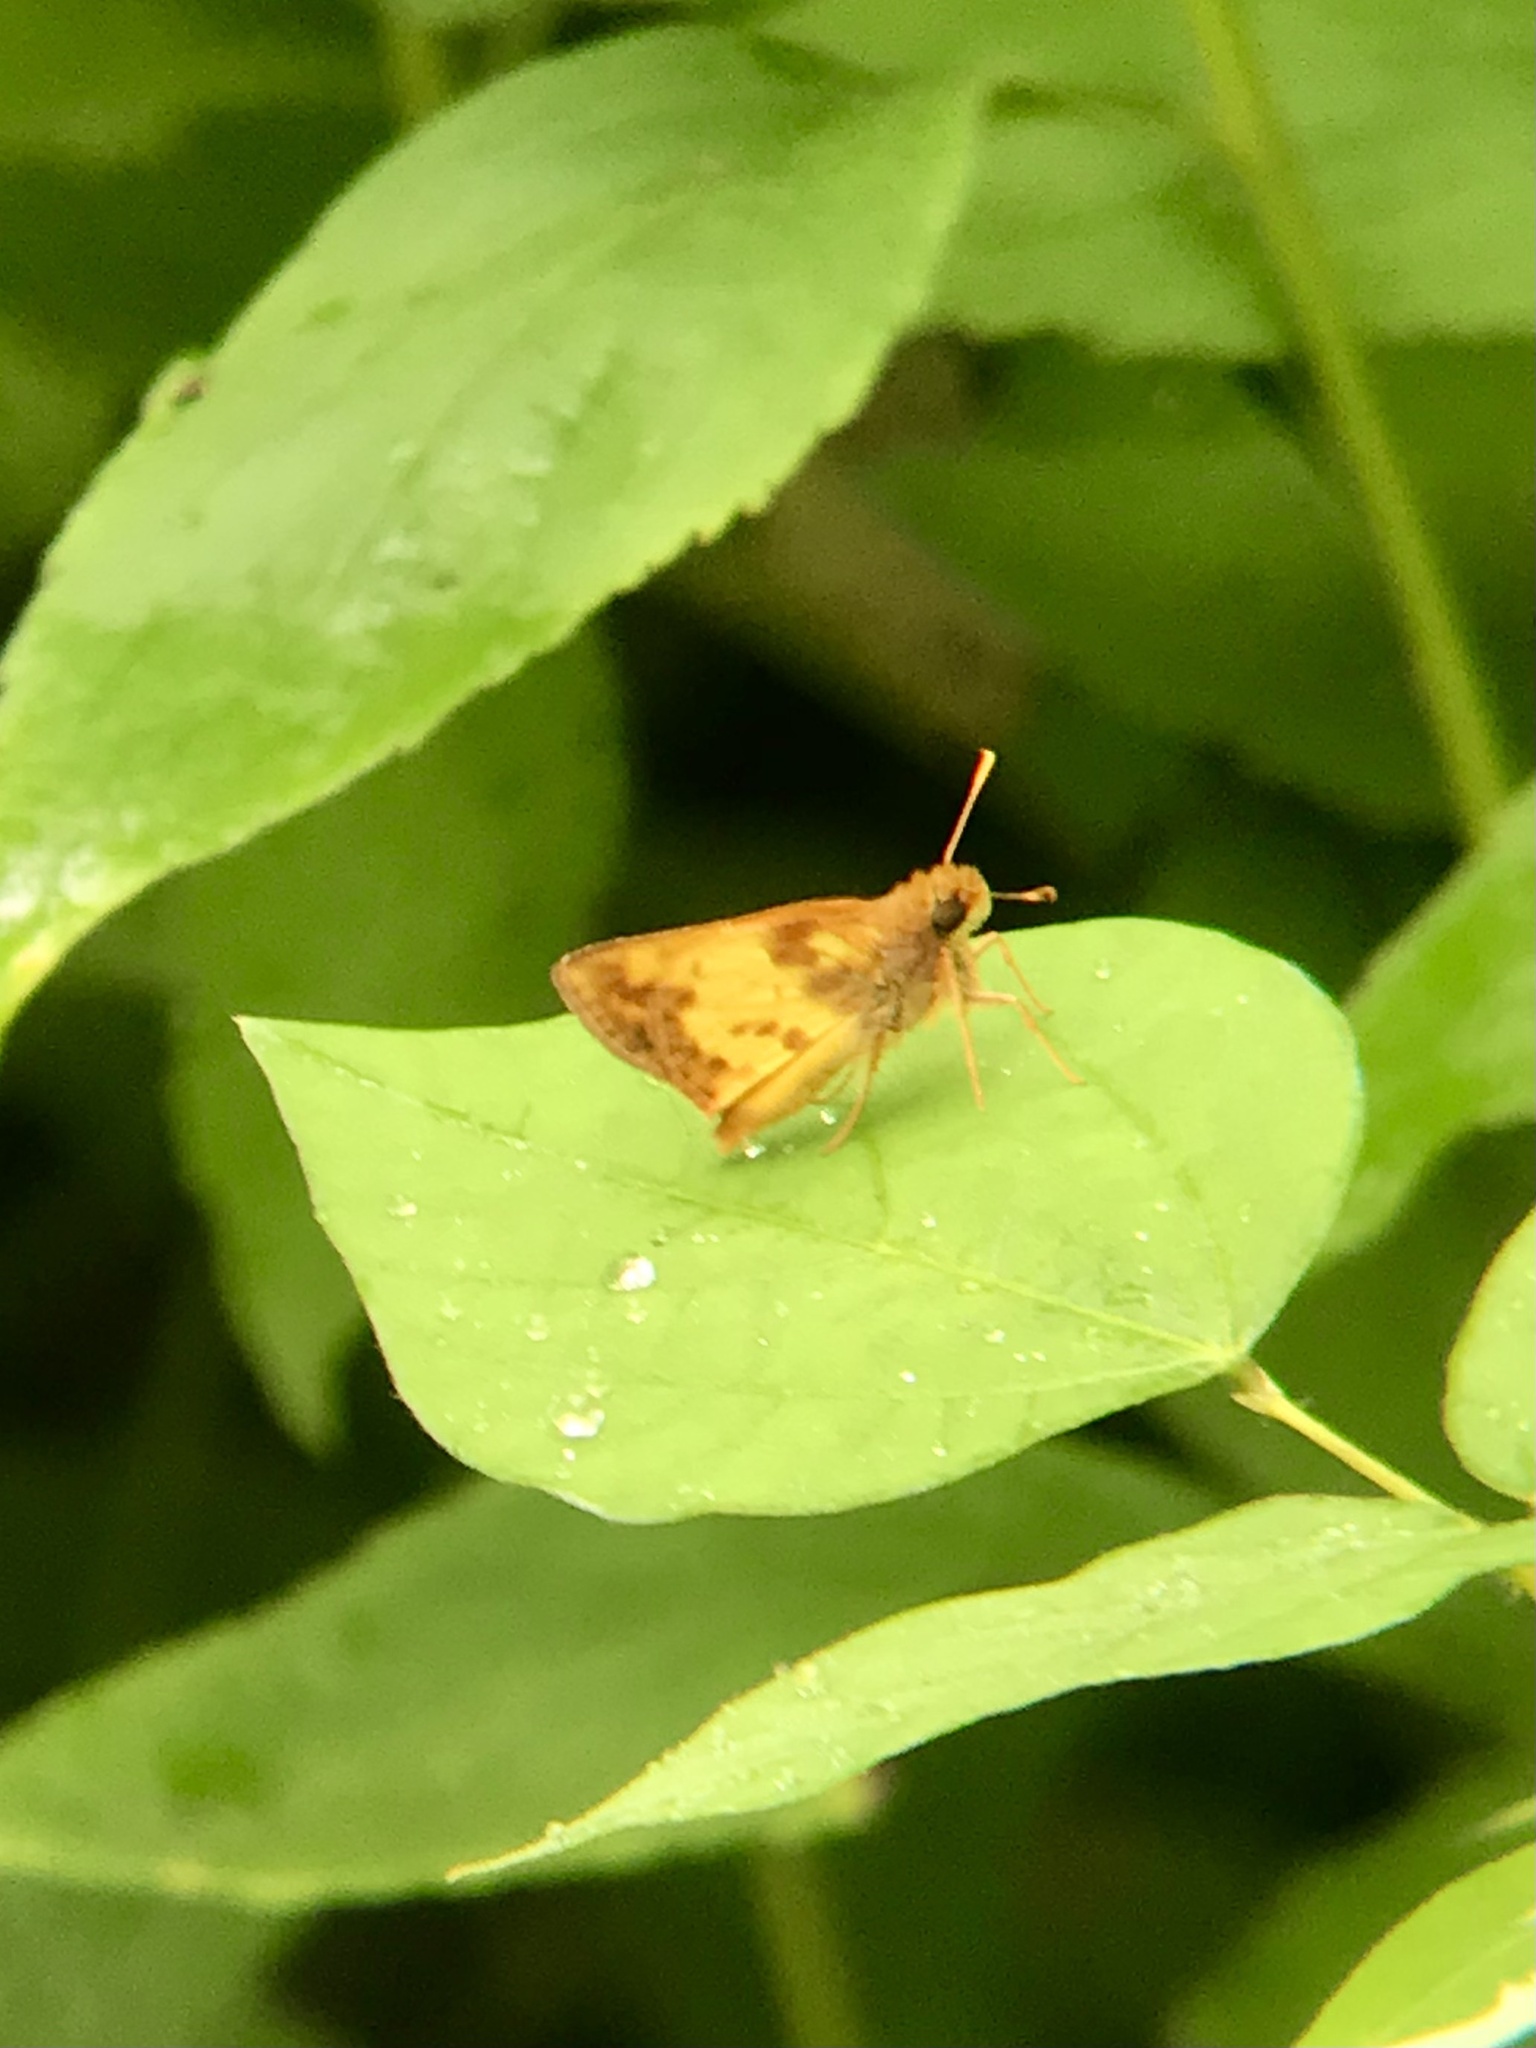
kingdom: Animalia
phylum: Arthropoda
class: Insecta
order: Lepidoptera
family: Hesperiidae
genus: Lon
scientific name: Lon zabulon
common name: Zabulon skipper
